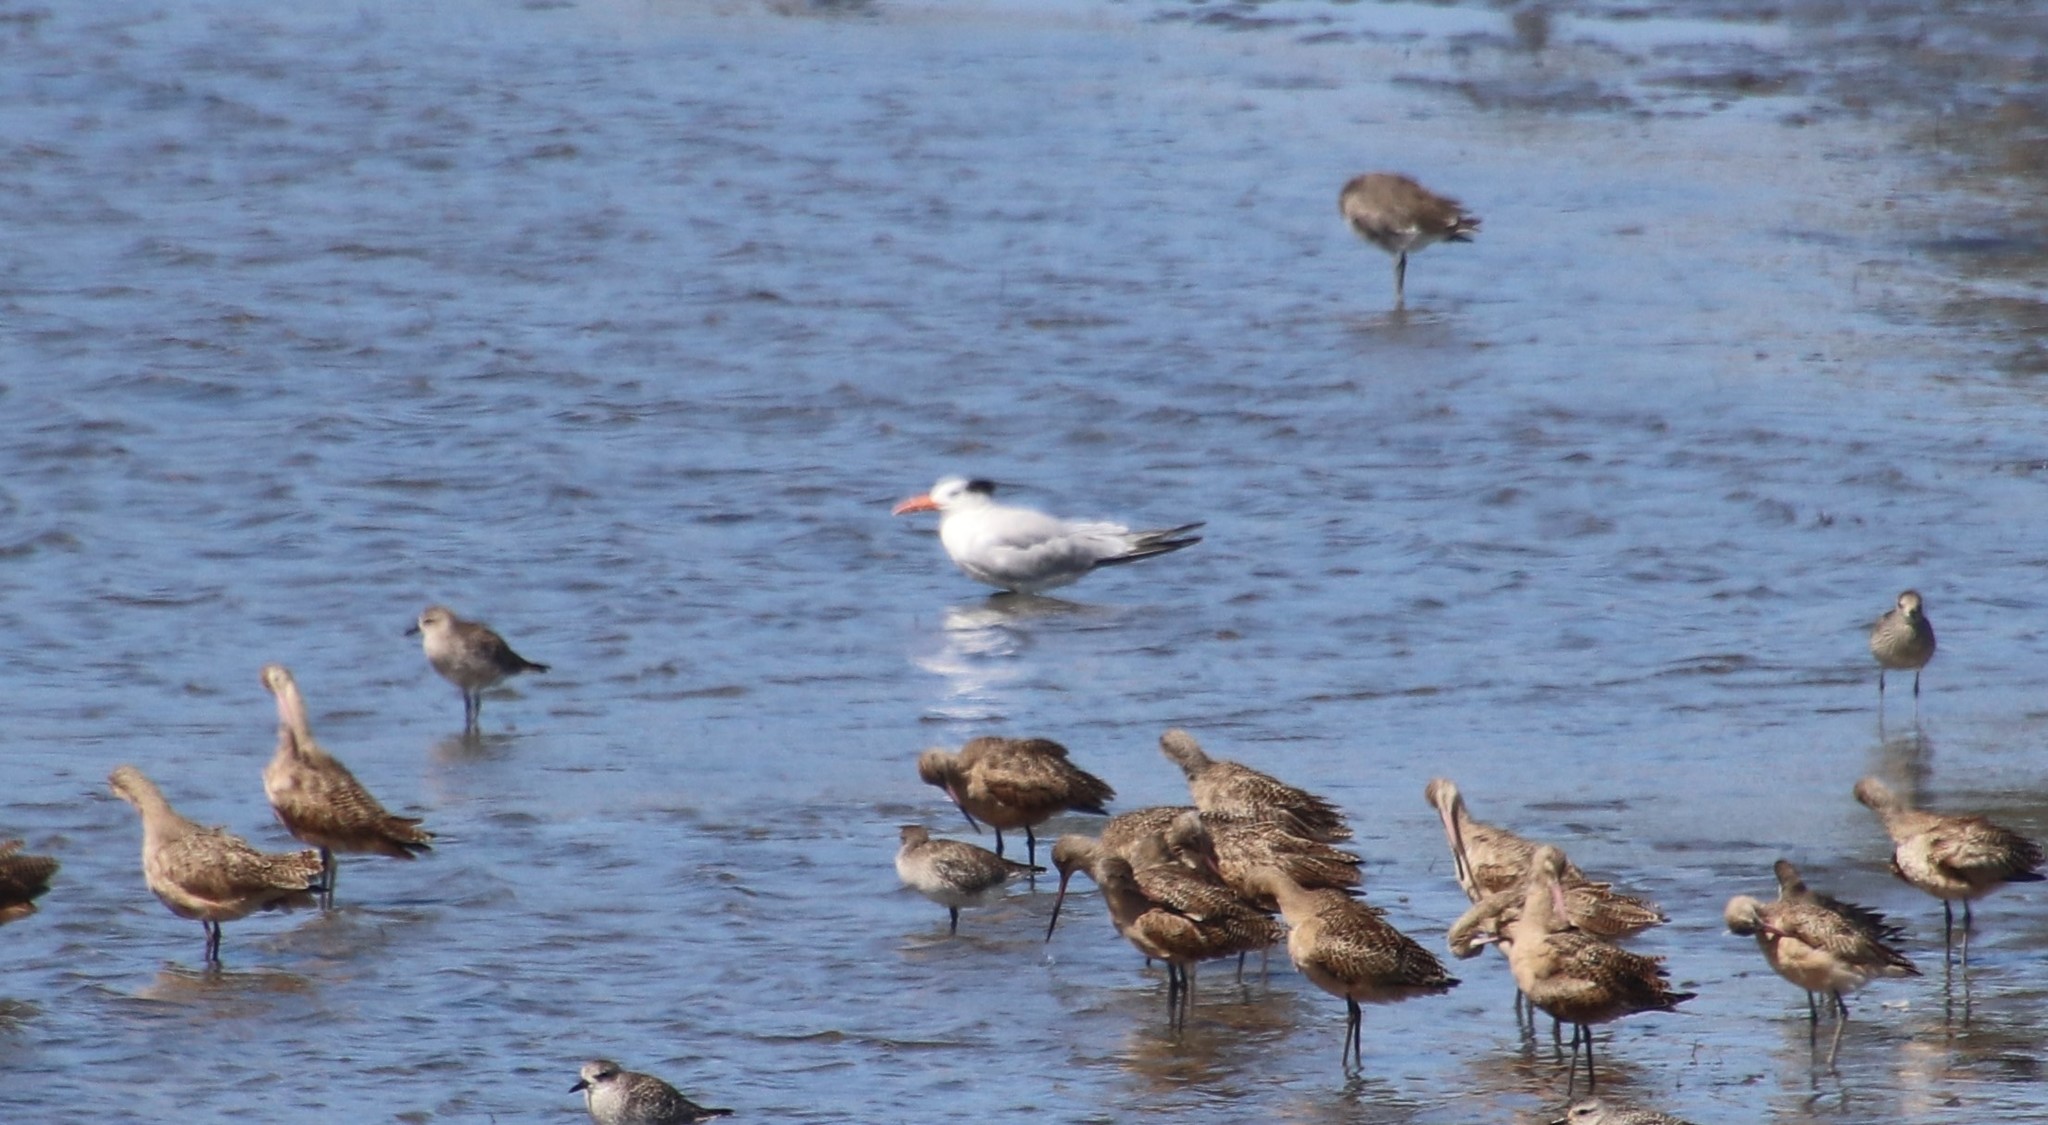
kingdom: Animalia
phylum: Chordata
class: Aves
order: Charadriiformes
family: Laridae
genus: Thalasseus
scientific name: Thalasseus maximus
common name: Royal tern
